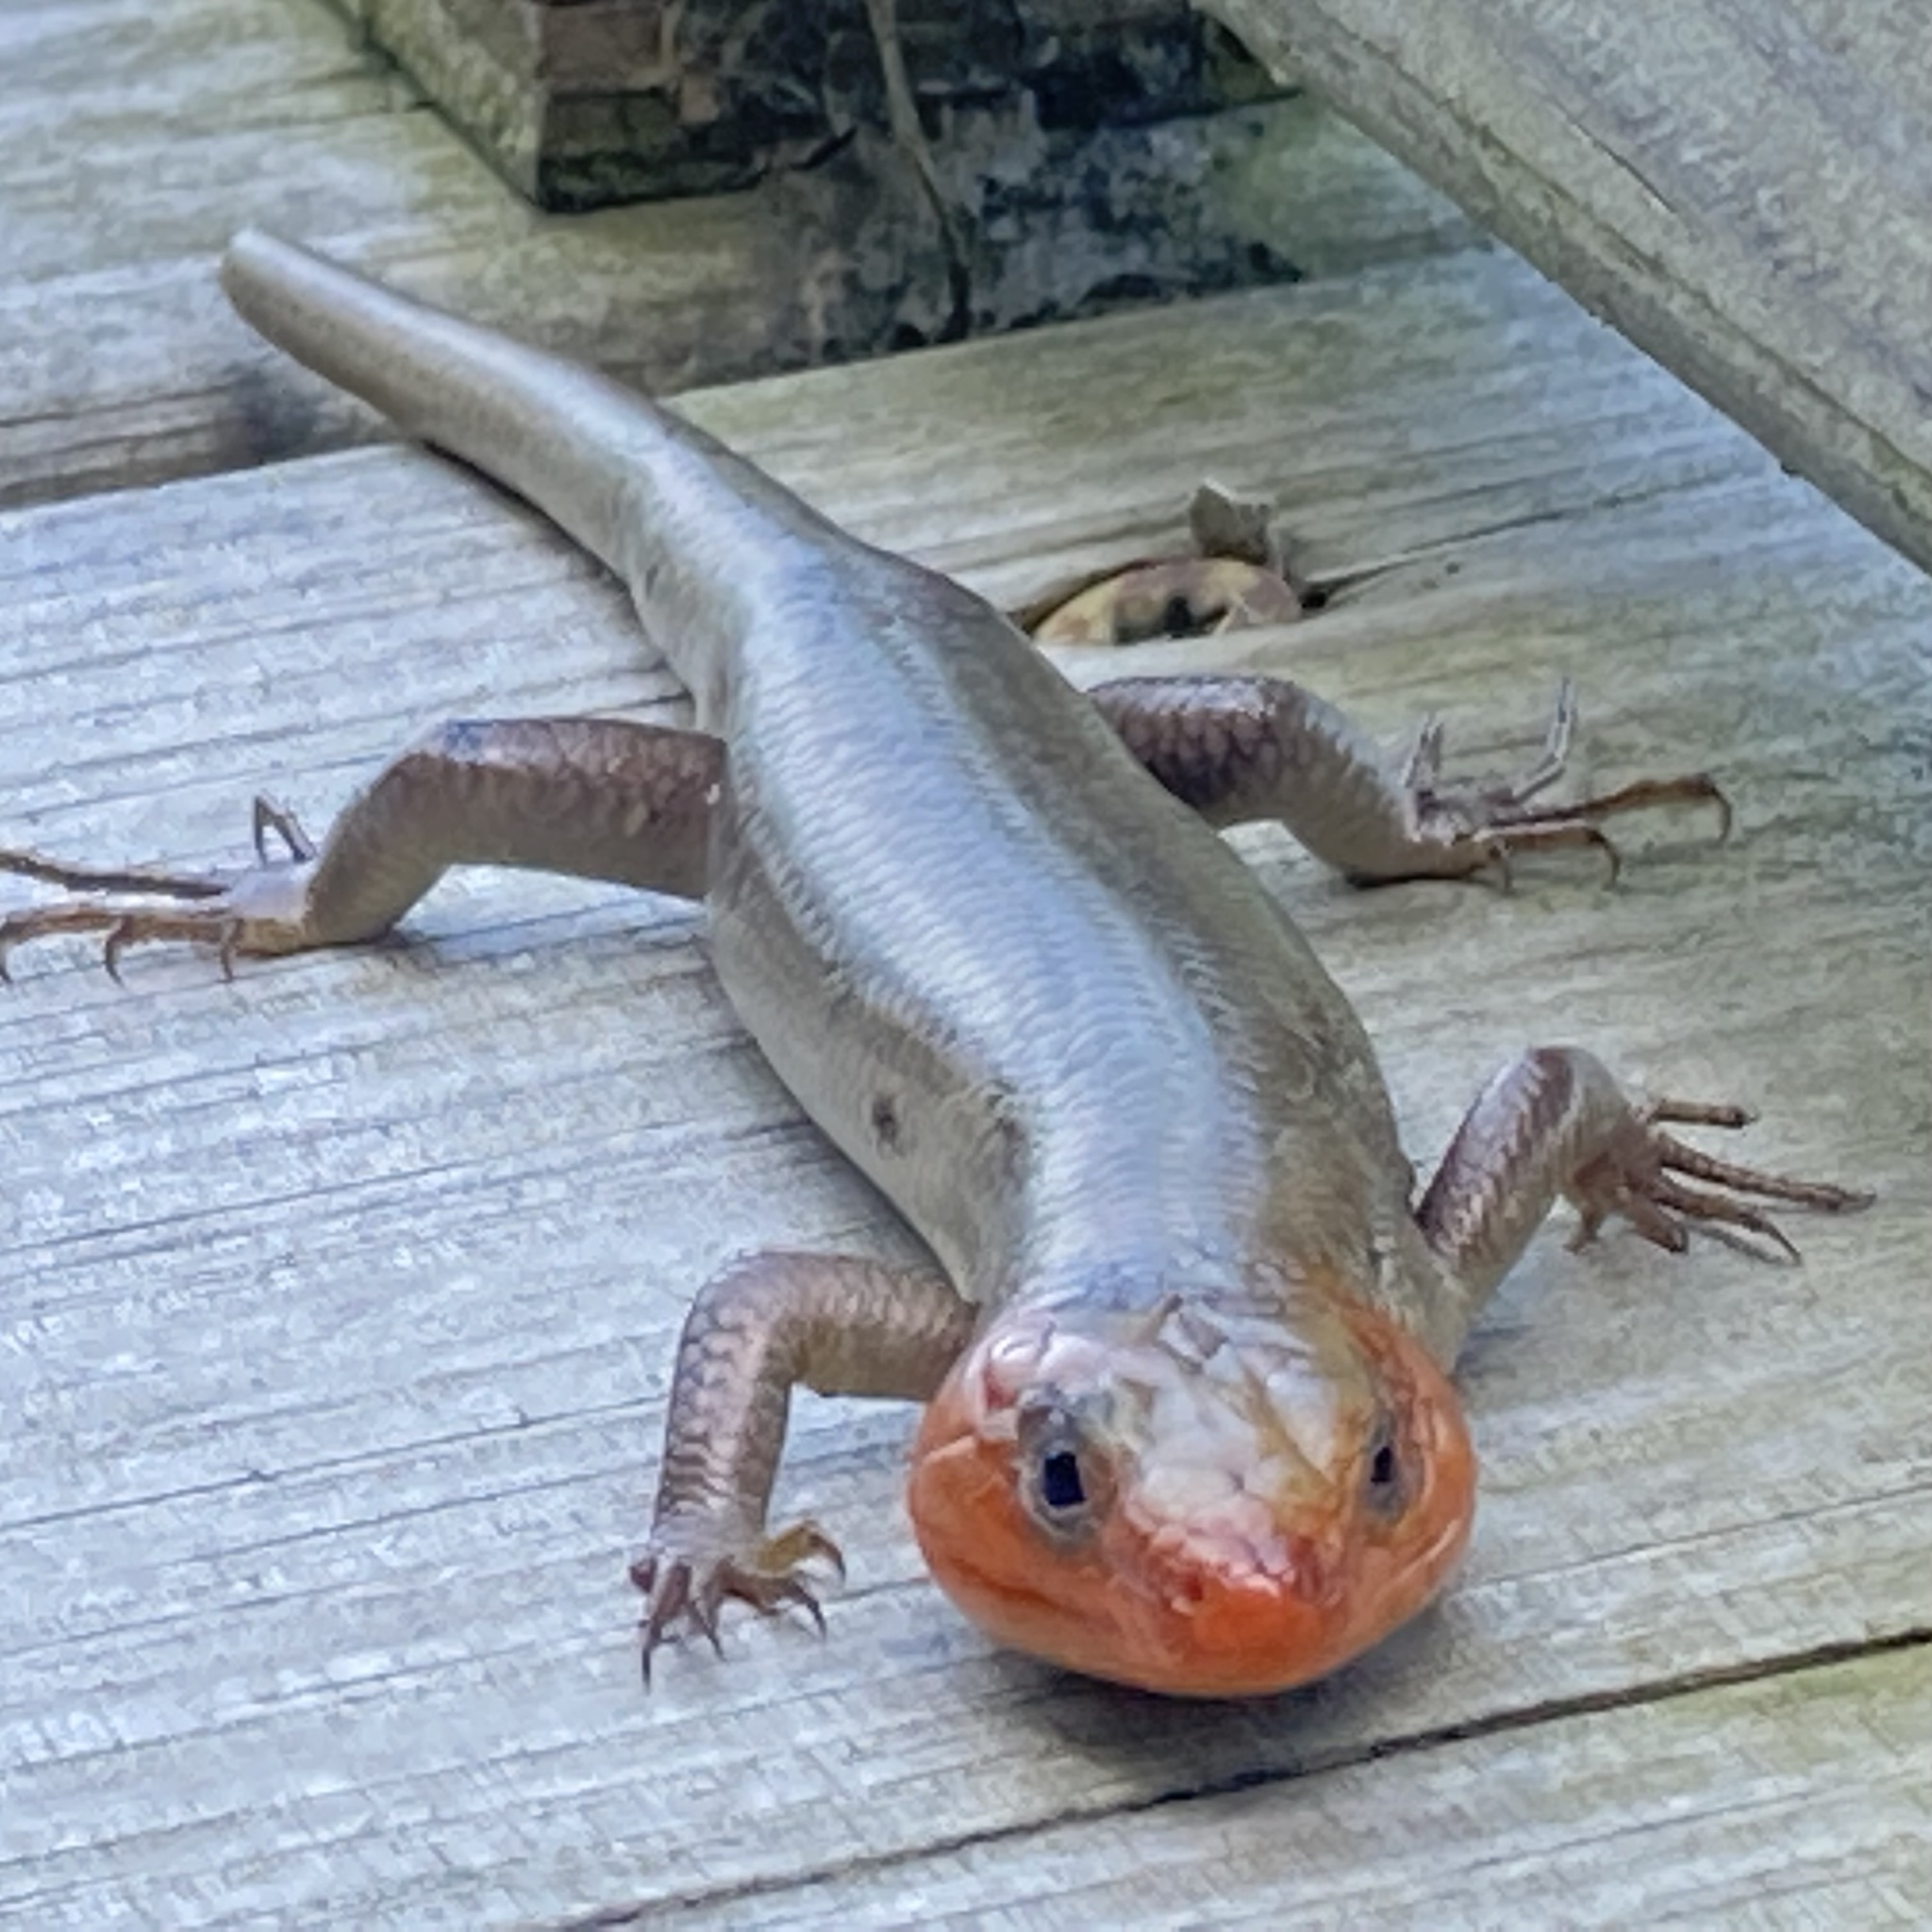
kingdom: Animalia
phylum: Chordata
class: Squamata
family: Scincidae
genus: Plestiodon
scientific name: Plestiodon fasciatus
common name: Five-lined skink
